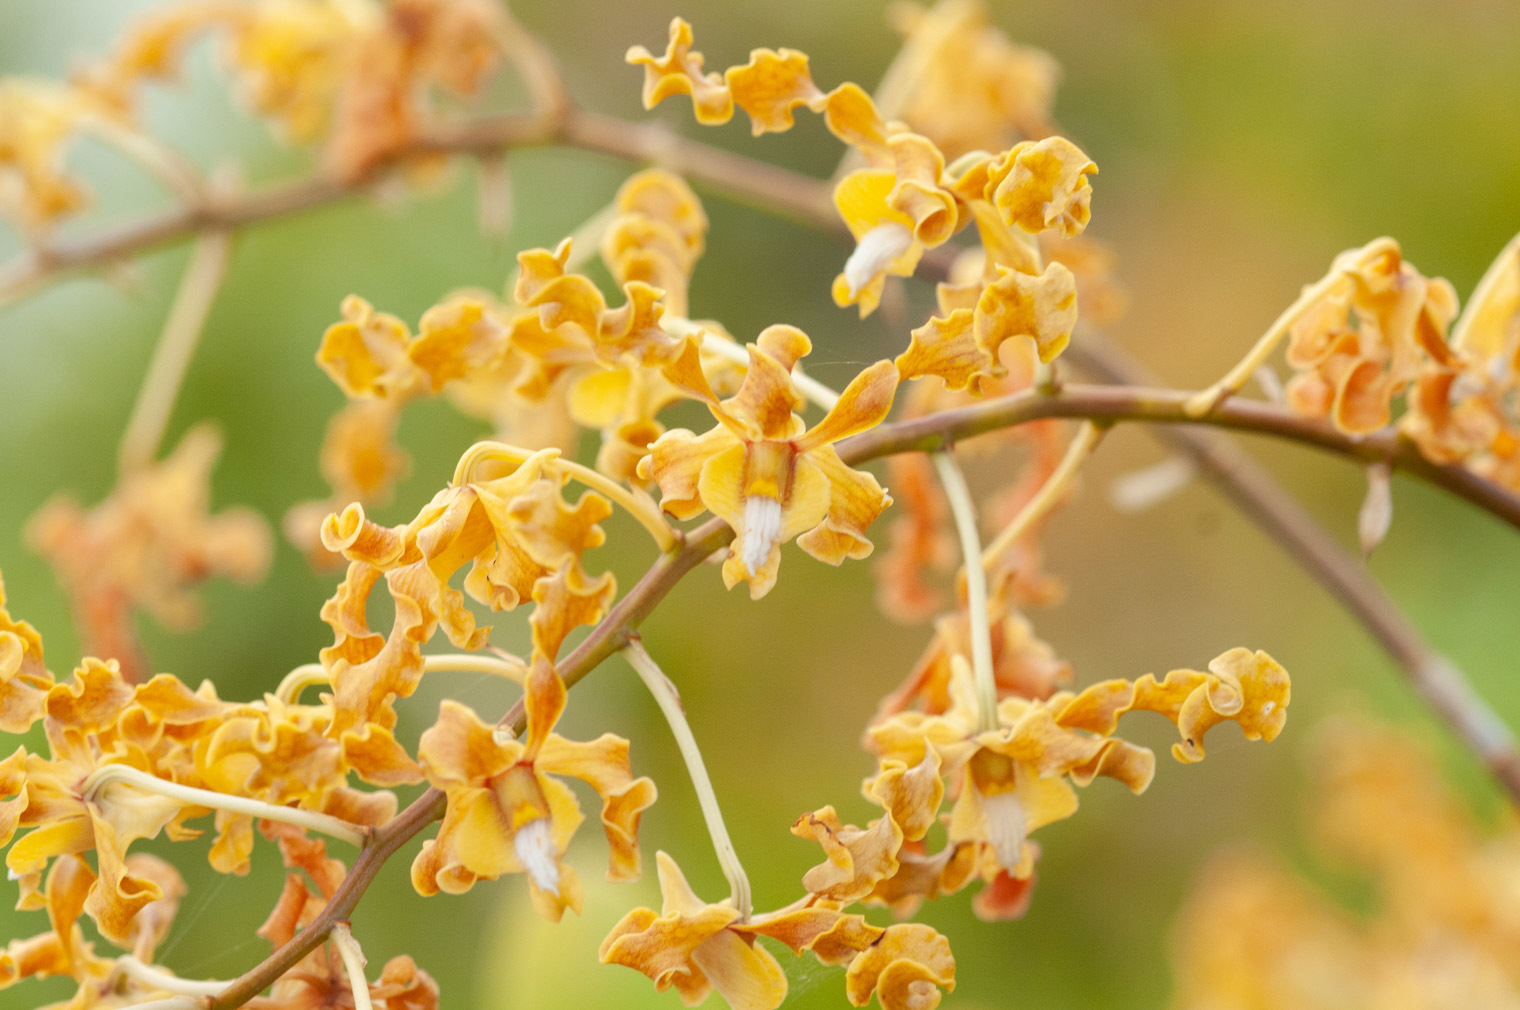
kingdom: Plantae
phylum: Tracheophyta
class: Liliopsida
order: Asparagales
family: Orchidaceae
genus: Dendrobium
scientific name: Dendrobium discolor
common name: Golden antler orchid
